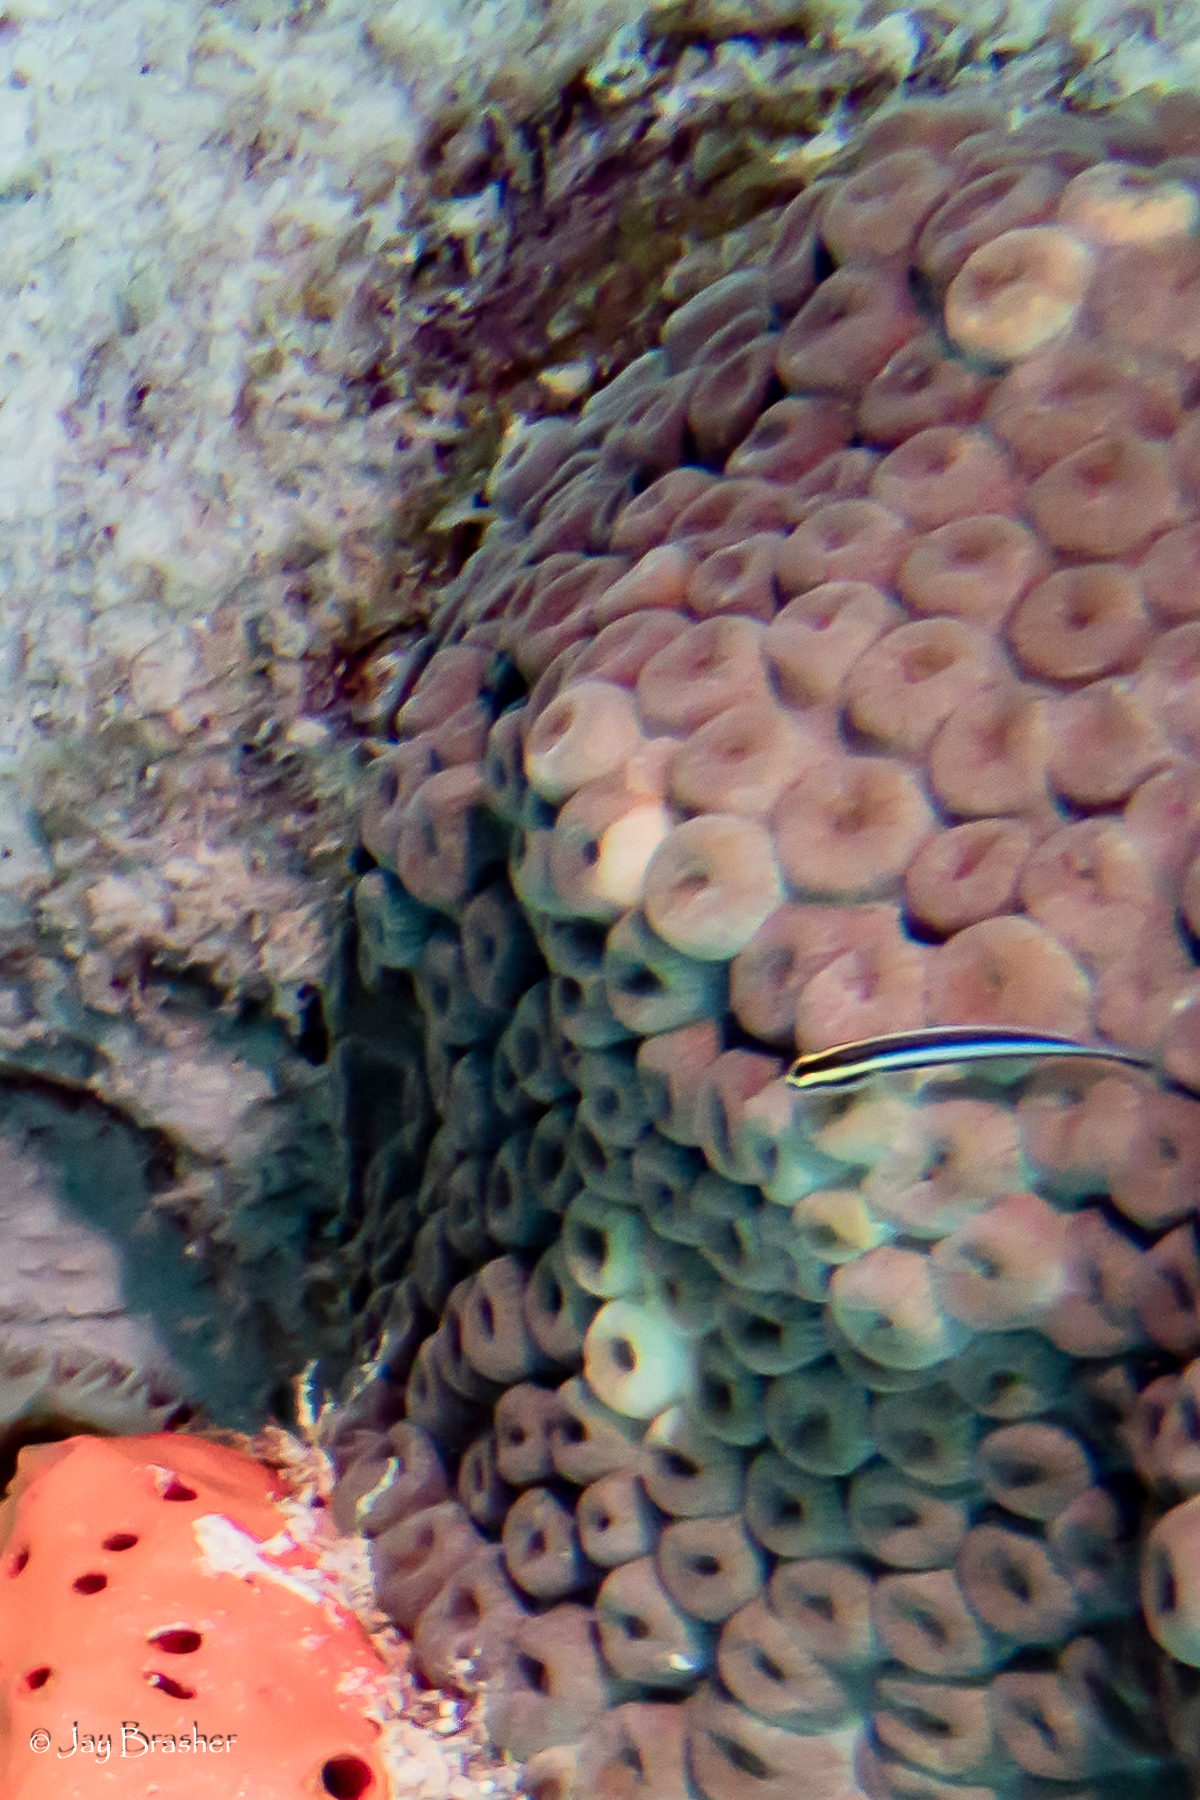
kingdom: Animalia
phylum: Cnidaria
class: Anthozoa
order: Scleractinia
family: Montastraeidae
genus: Montastraea
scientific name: Montastraea cavernosa
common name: Great star coral
